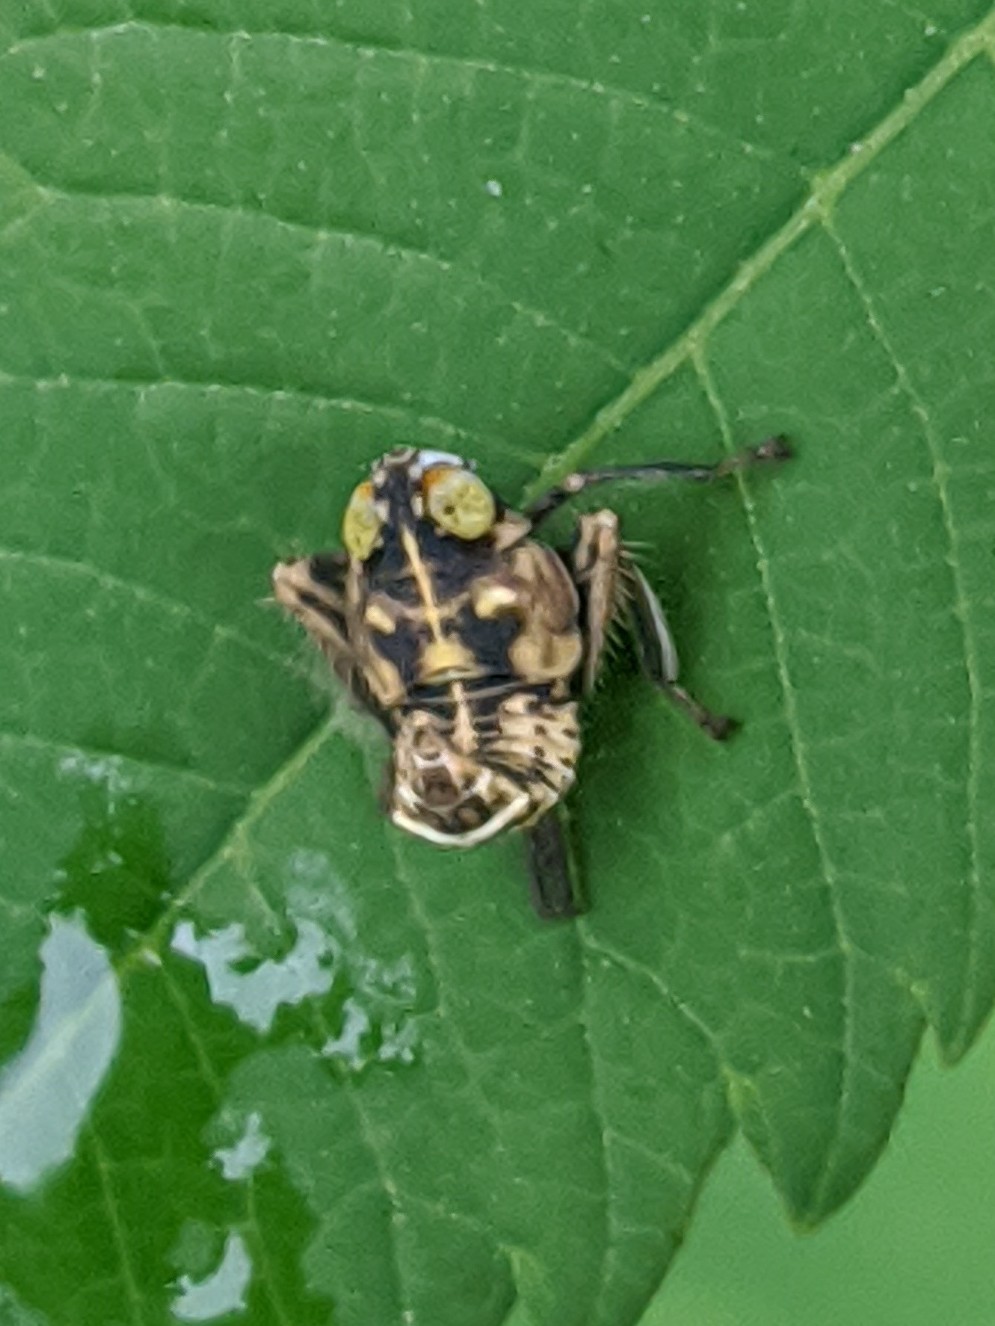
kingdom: Animalia
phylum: Arthropoda
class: Insecta
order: Hemiptera
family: Cicadellidae
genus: Jikradia
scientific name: Jikradia olitoria
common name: Coppery leafhopper
